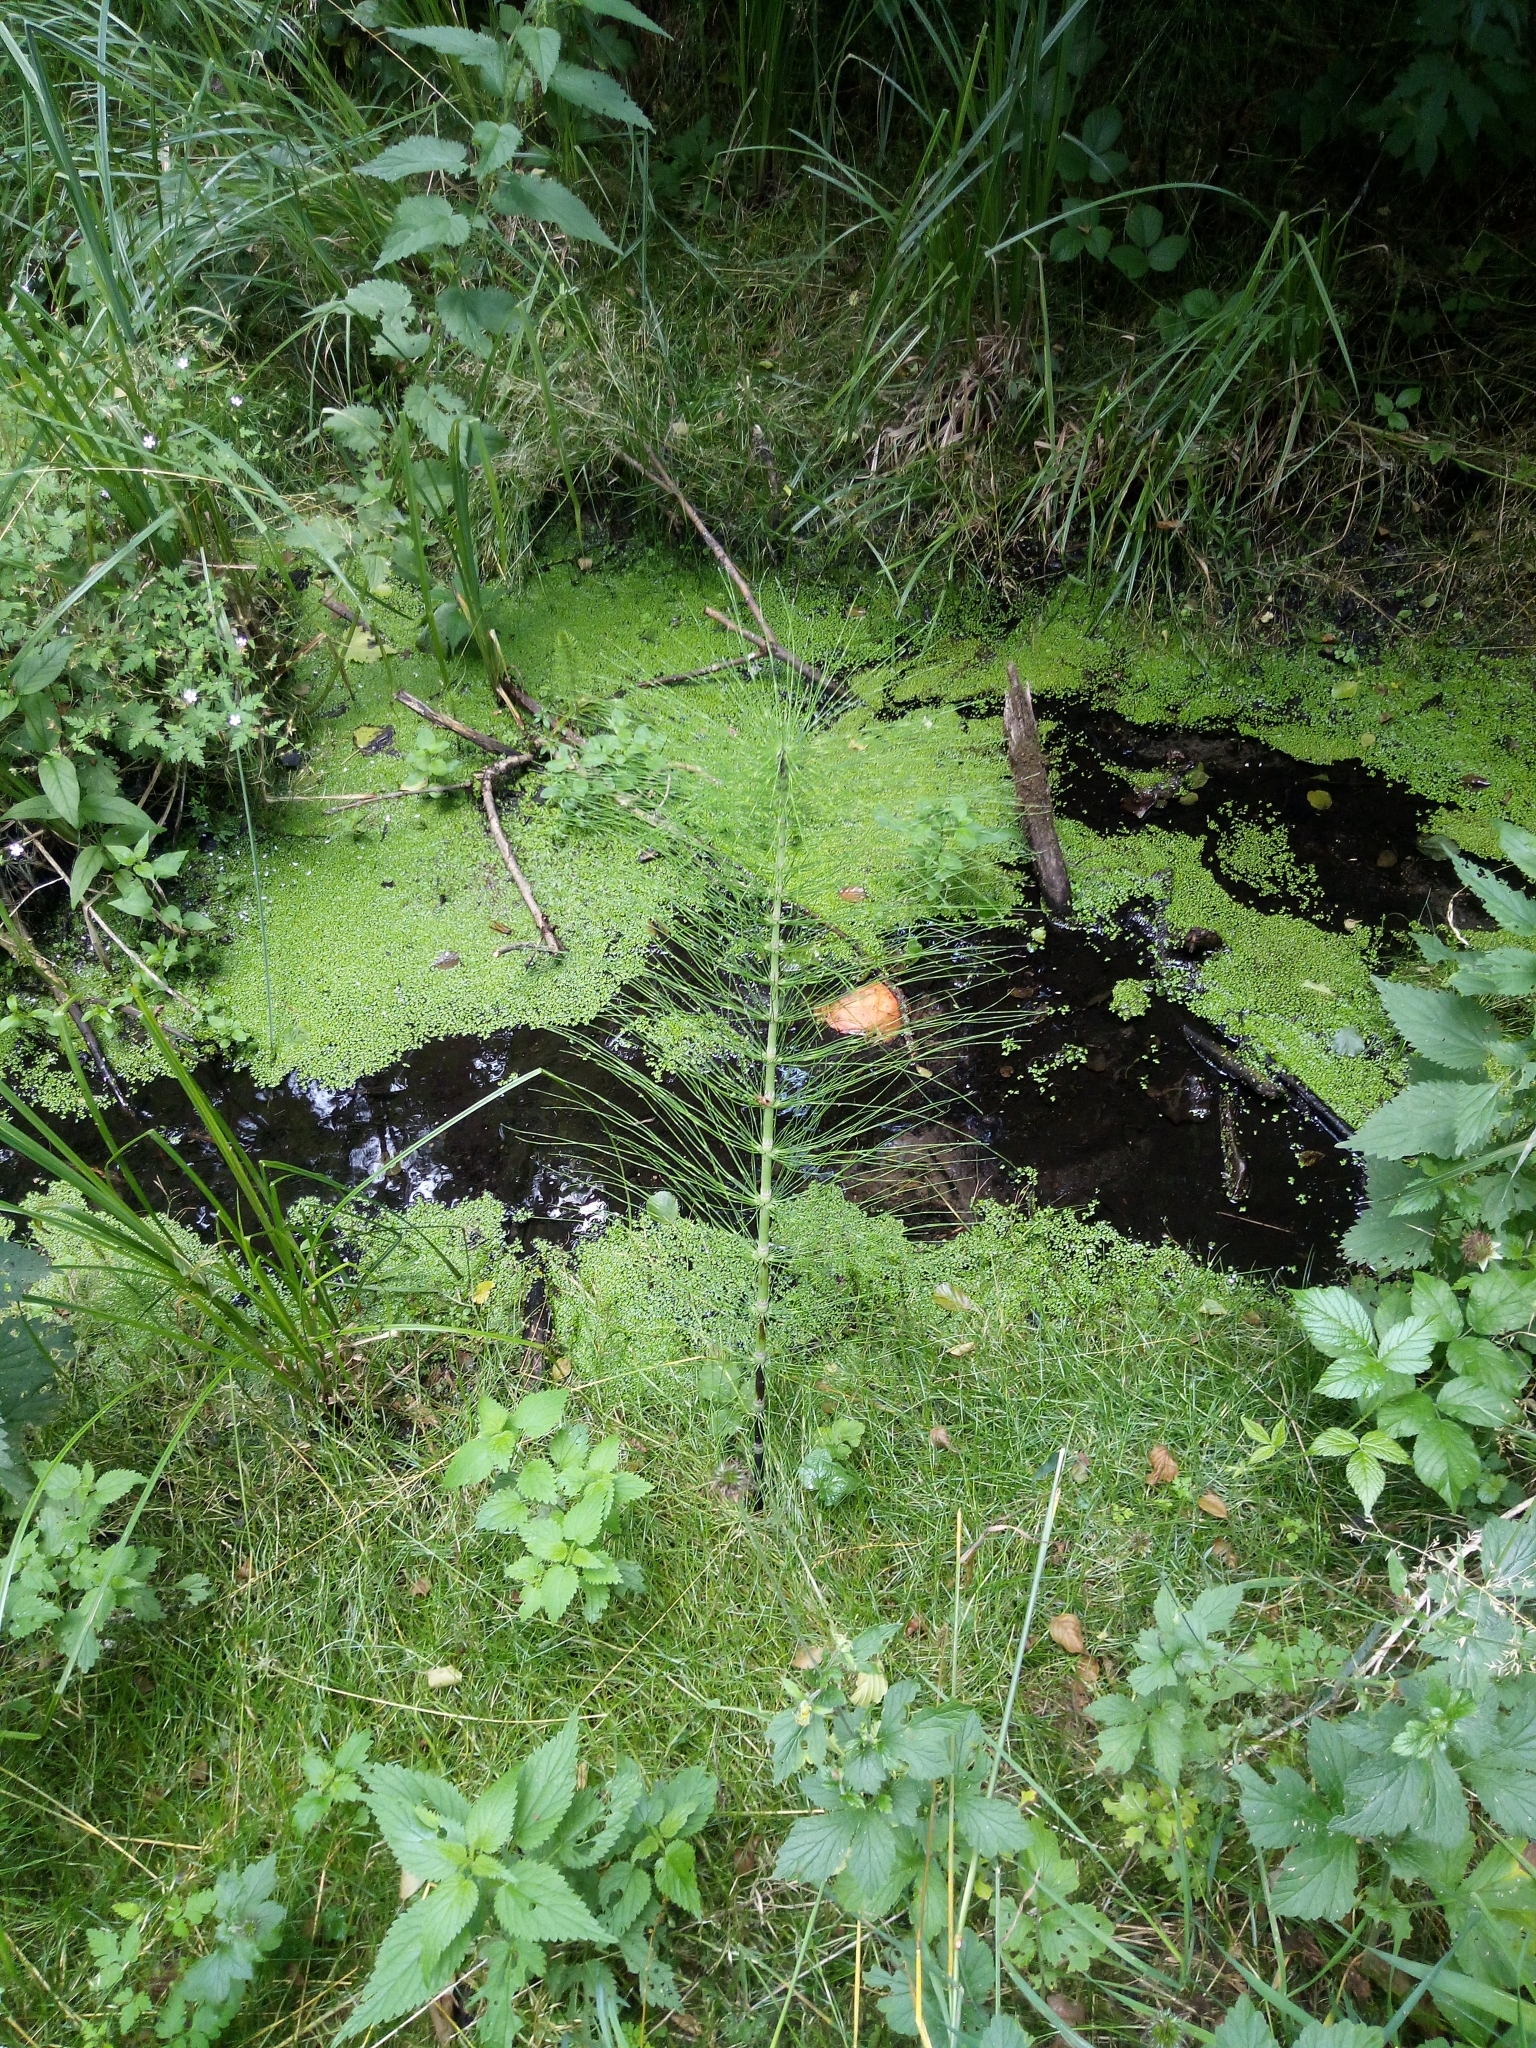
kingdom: Plantae
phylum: Tracheophyta
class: Polypodiopsida
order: Equisetales
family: Equisetaceae
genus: Equisetum
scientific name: Equisetum telmateia
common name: Great horsetail
